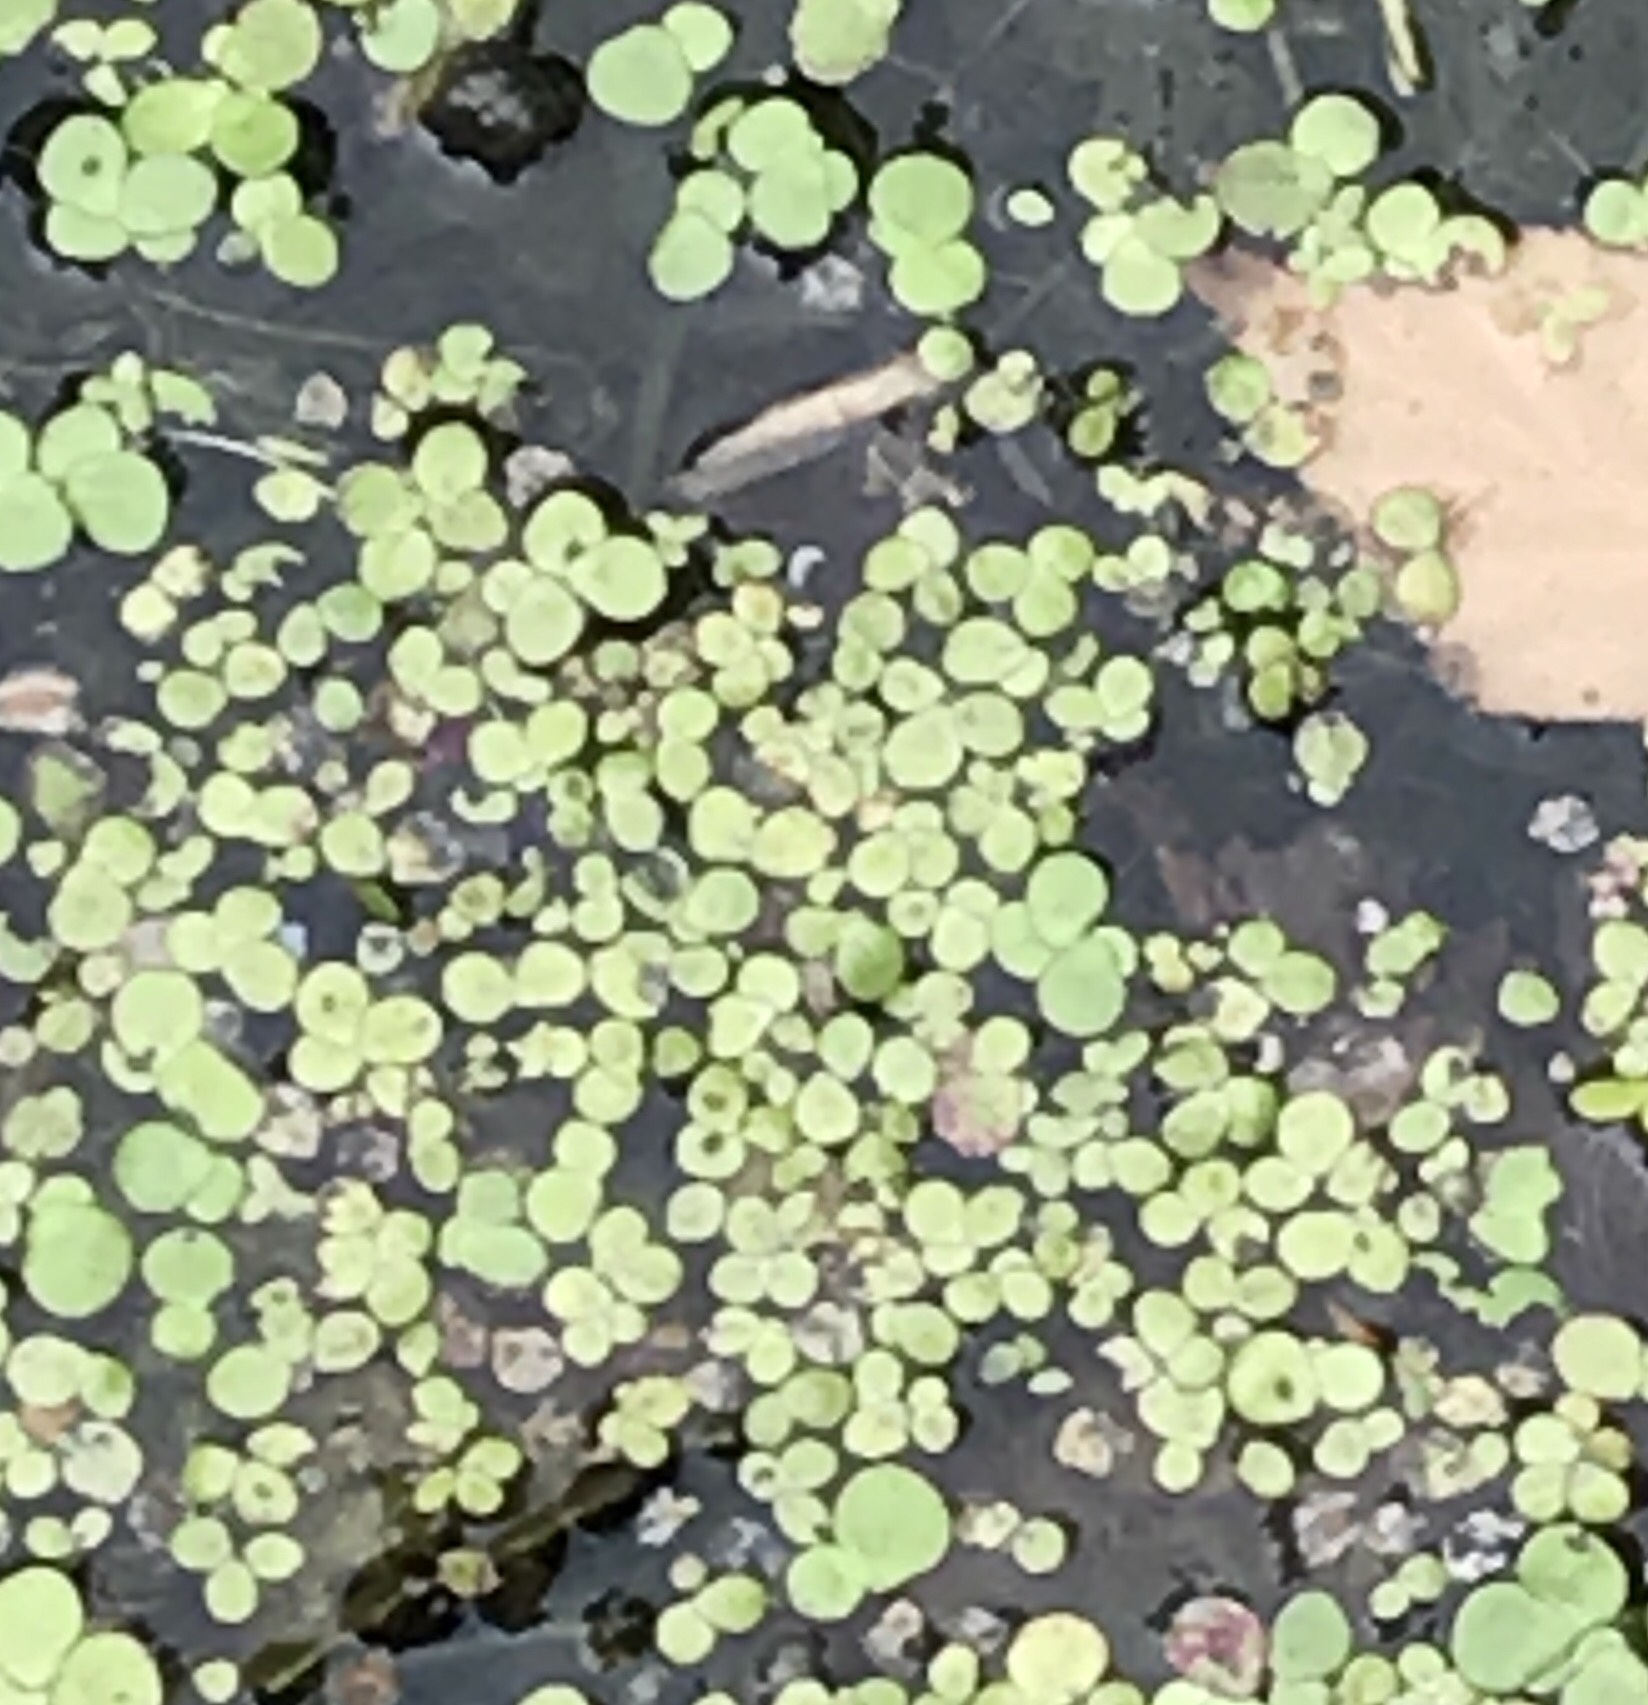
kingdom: Plantae
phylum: Tracheophyta
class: Liliopsida
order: Alismatales
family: Araceae
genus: Spirodela
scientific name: Spirodela polyrhiza
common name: Great duckweed
